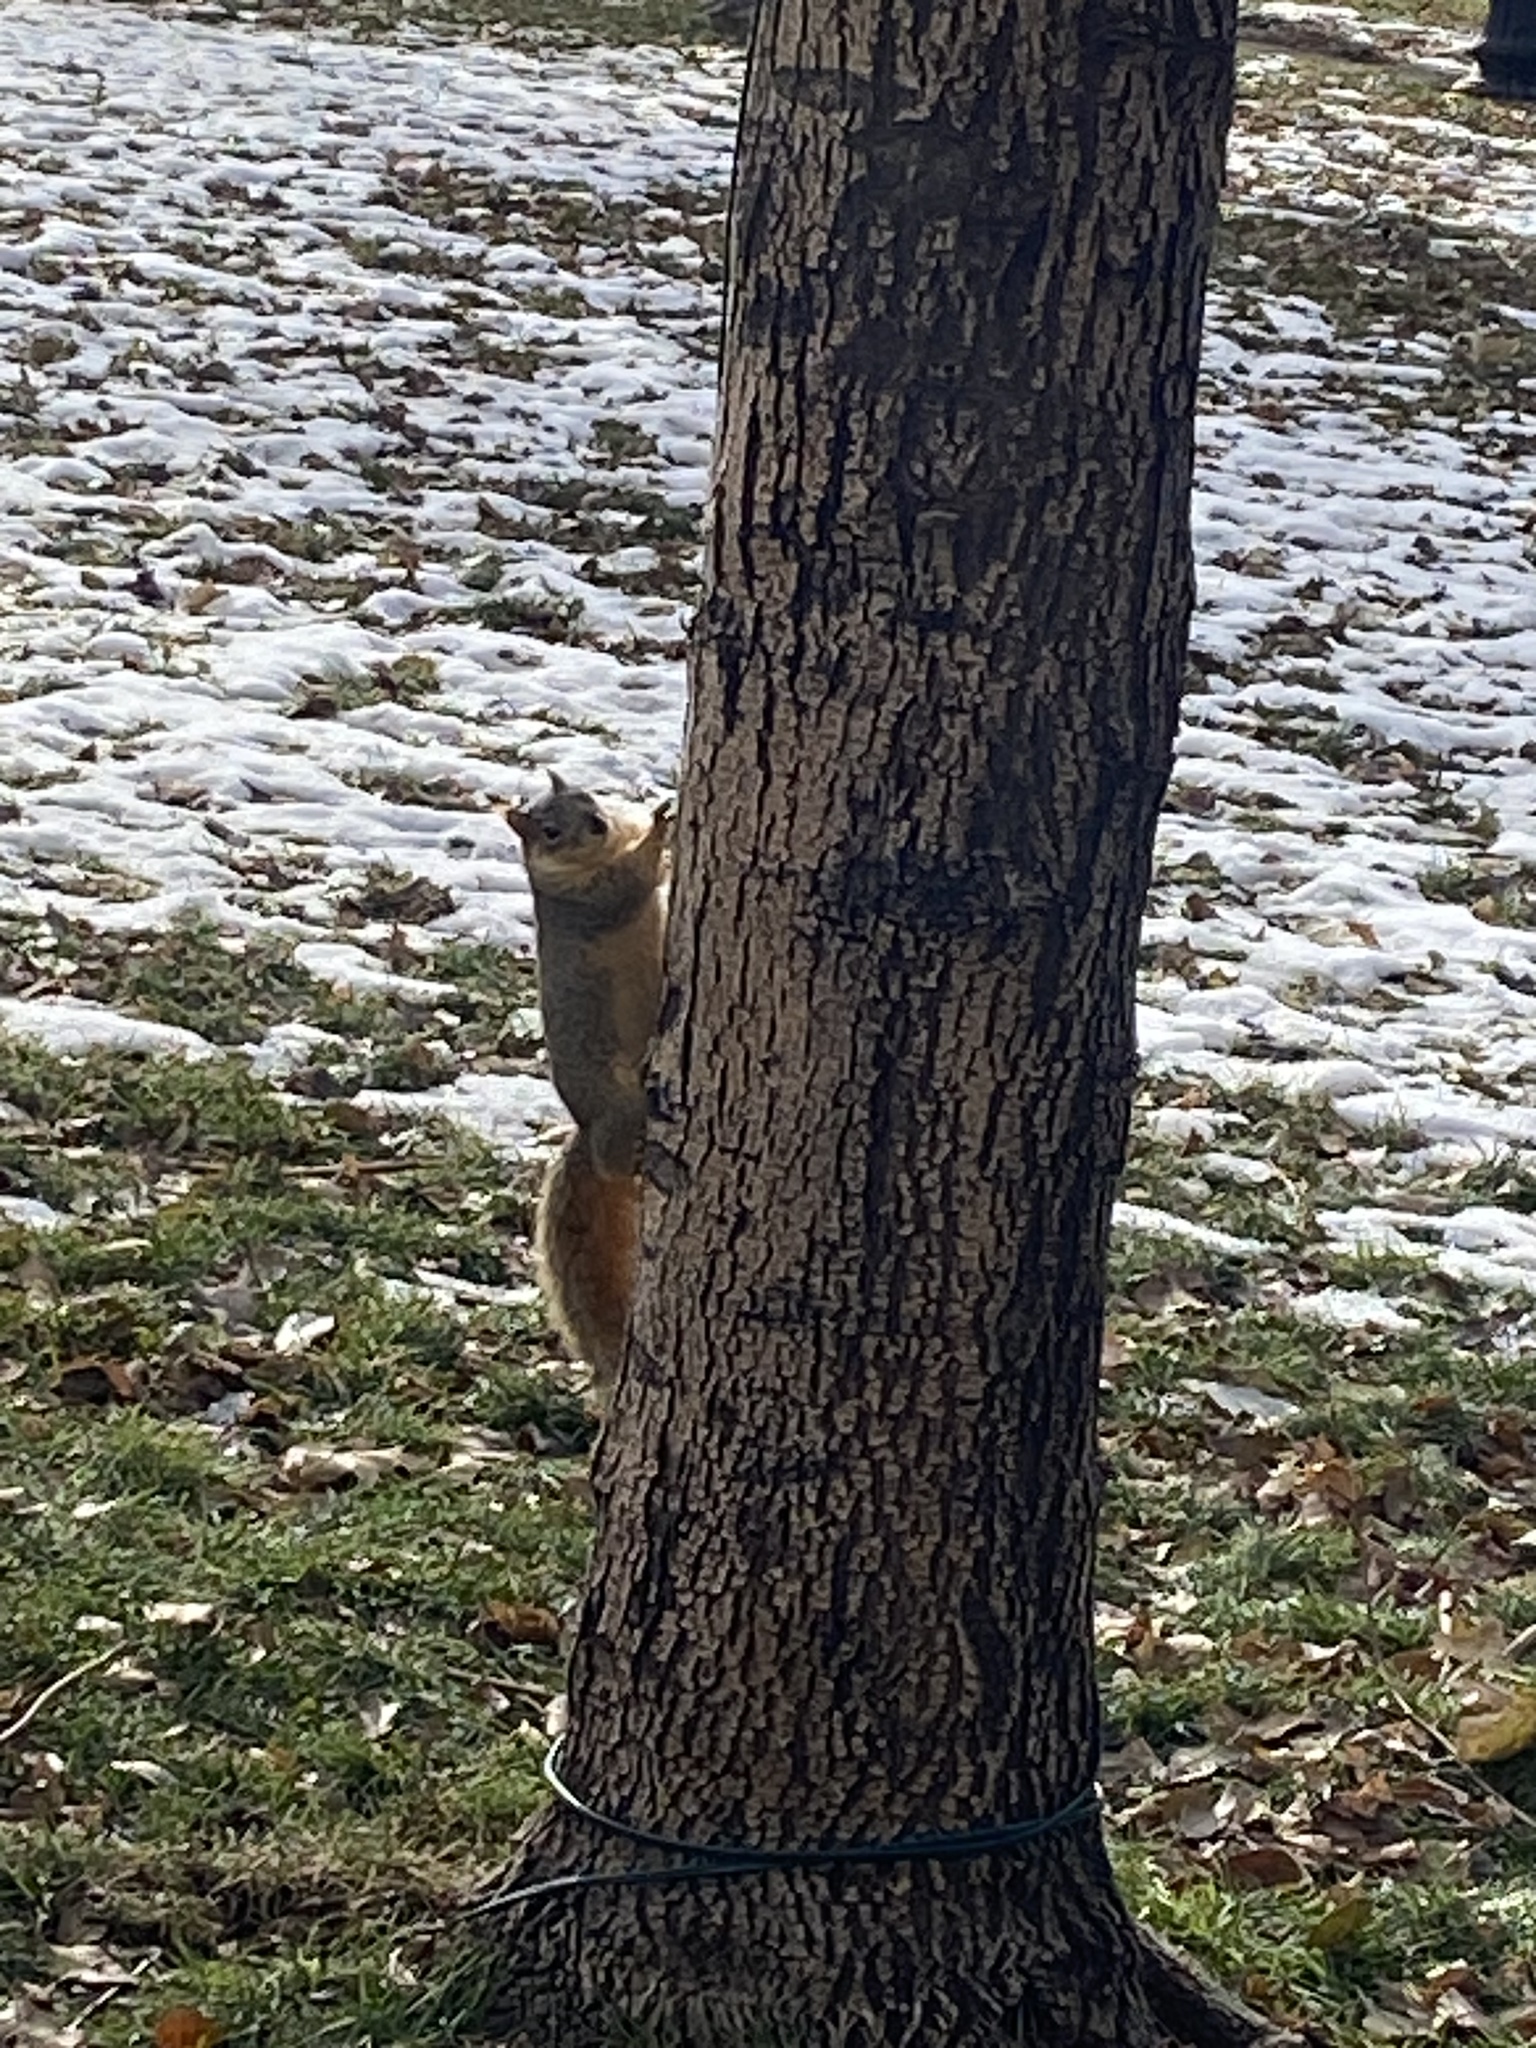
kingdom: Animalia
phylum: Chordata
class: Mammalia
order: Rodentia
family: Sciuridae
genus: Sciurus
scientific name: Sciurus niger
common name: Fox squirrel
